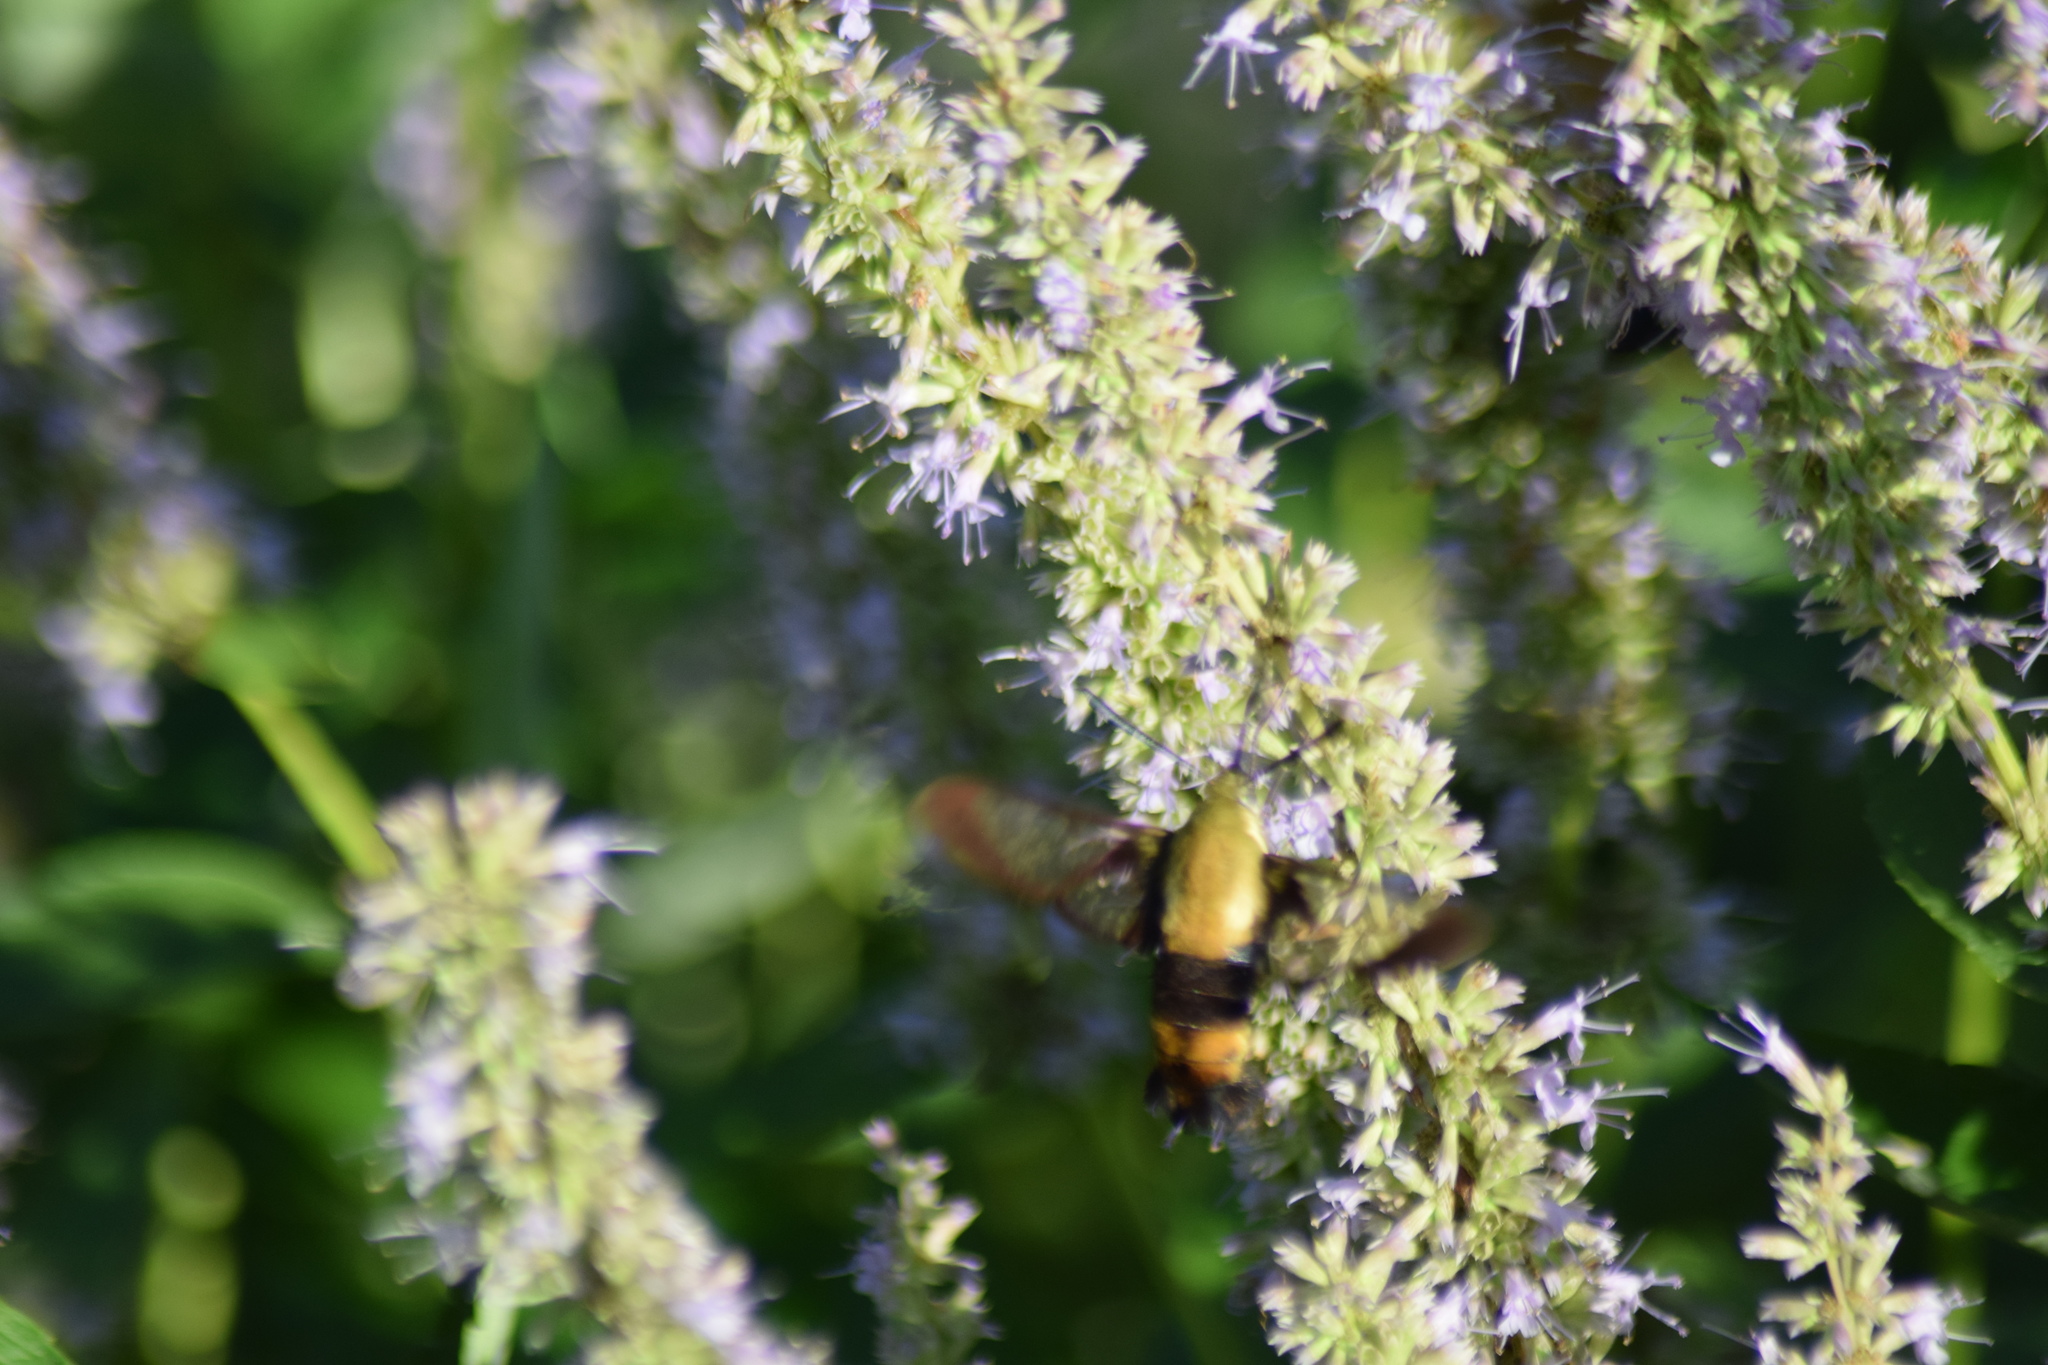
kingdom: Animalia
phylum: Arthropoda
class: Insecta
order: Lepidoptera
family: Sphingidae
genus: Hemaris
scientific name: Hemaris diffinis
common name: Bumblebee moth
